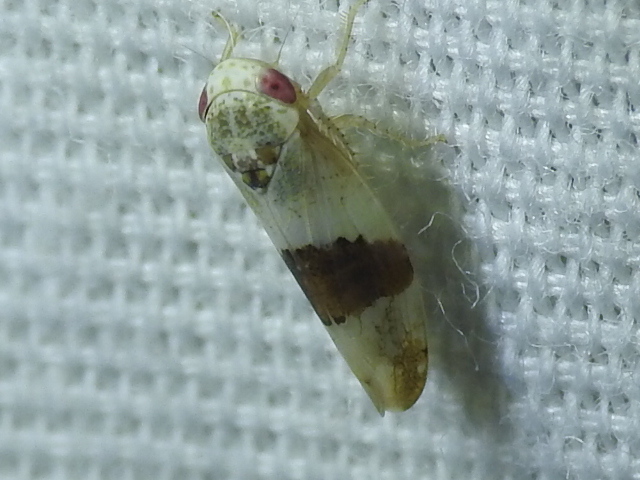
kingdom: Animalia
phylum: Arthropoda
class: Insecta
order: Hemiptera
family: Cicadellidae
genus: Norvellina
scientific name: Norvellina seminuda
